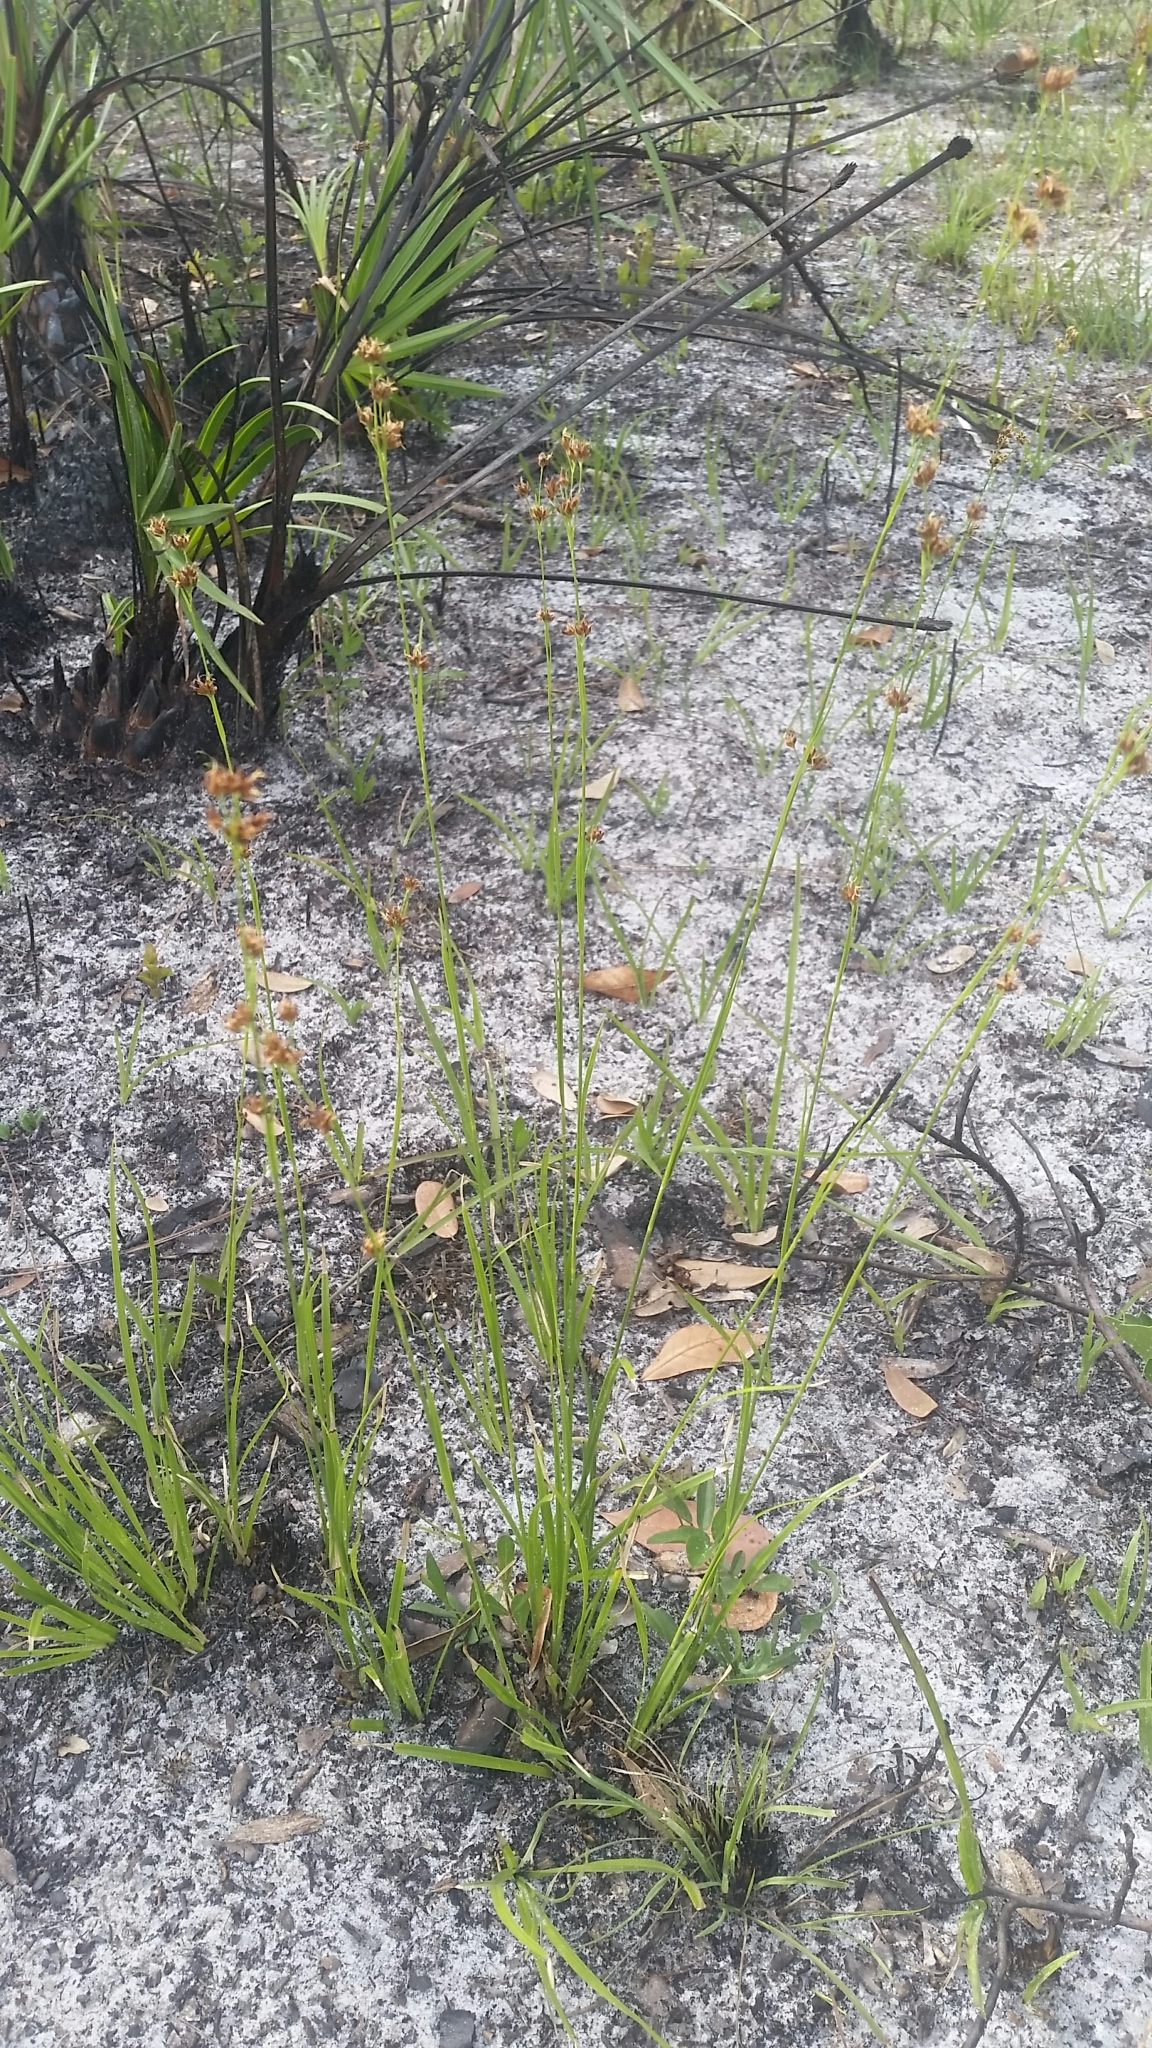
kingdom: Plantae
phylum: Tracheophyta
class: Liliopsida
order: Poales
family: Cyperaceae
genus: Rhynchospora
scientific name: Rhynchospora recognita
